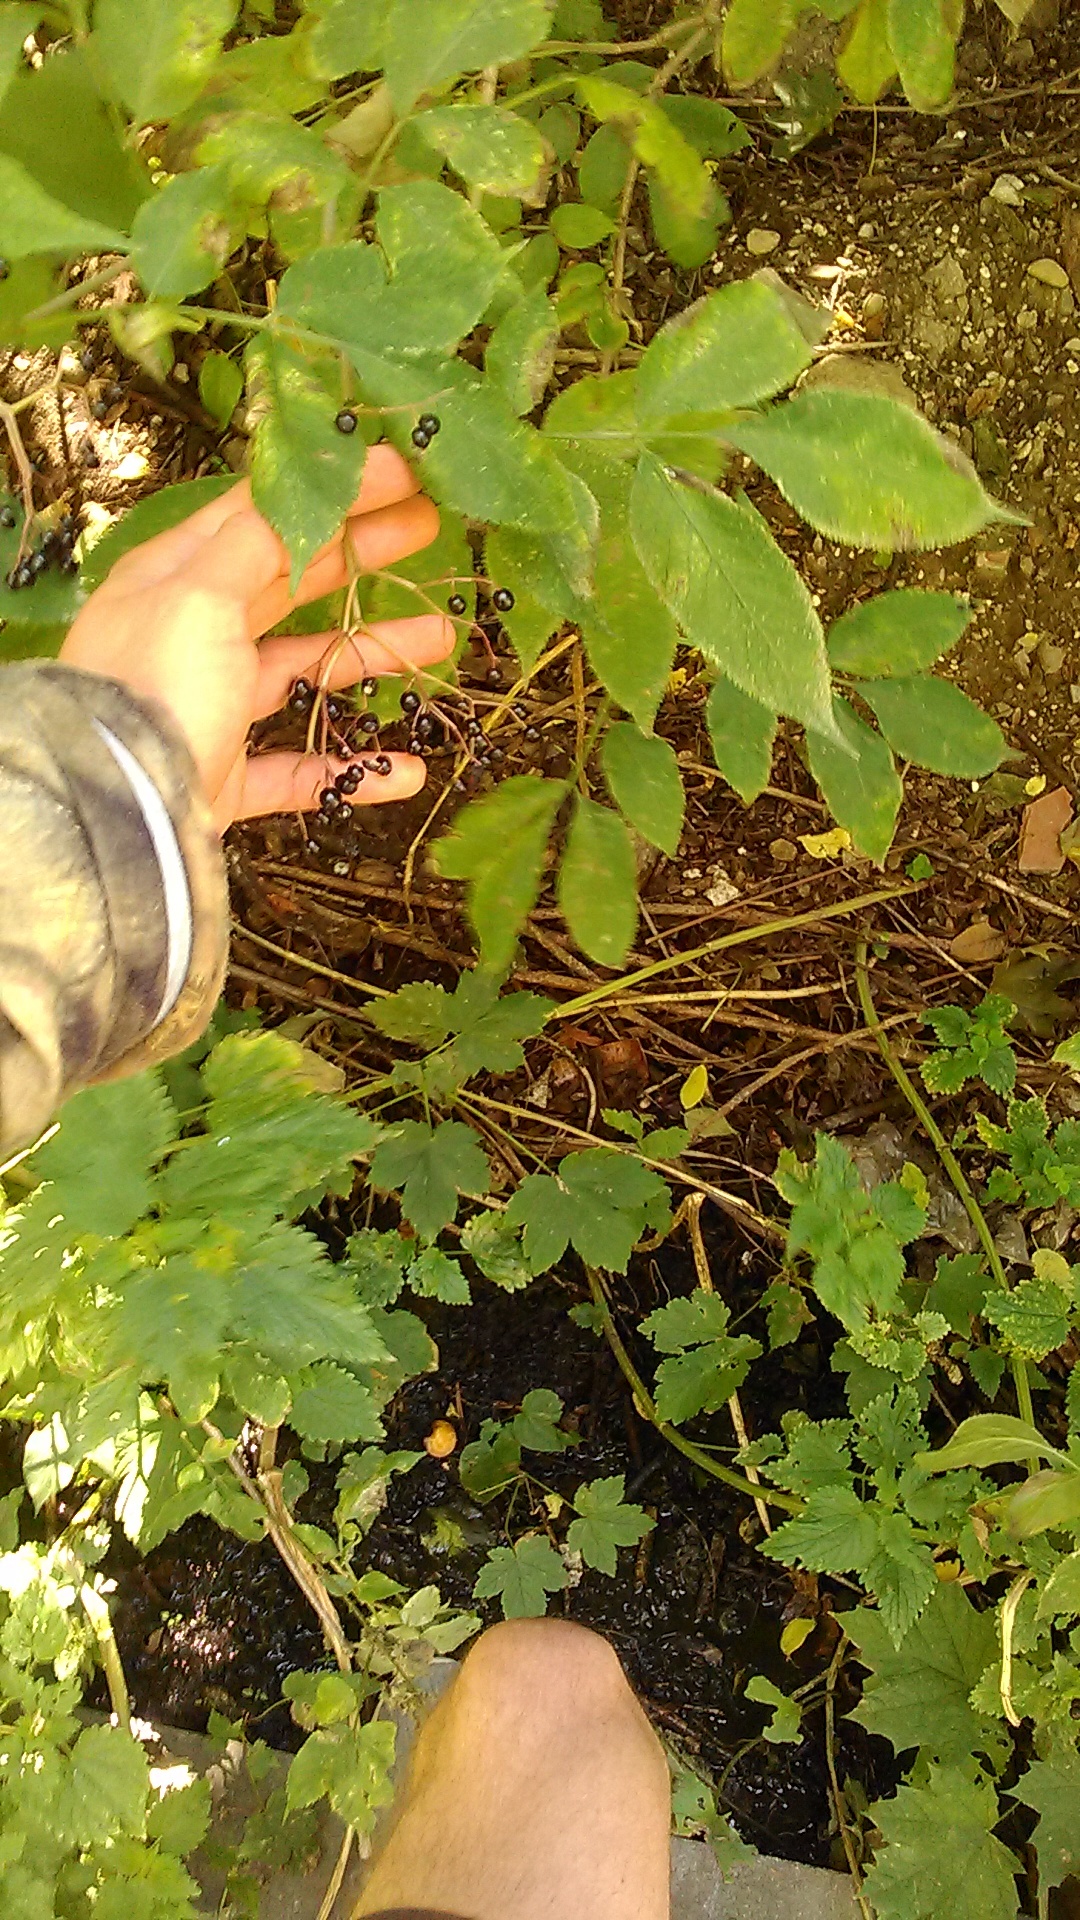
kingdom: Plantae
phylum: Tracheophyta
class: Magnoliopsida
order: Dipsacales
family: Viburnaceae
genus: Sambucus
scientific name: Sambucus nigra
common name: Elder
